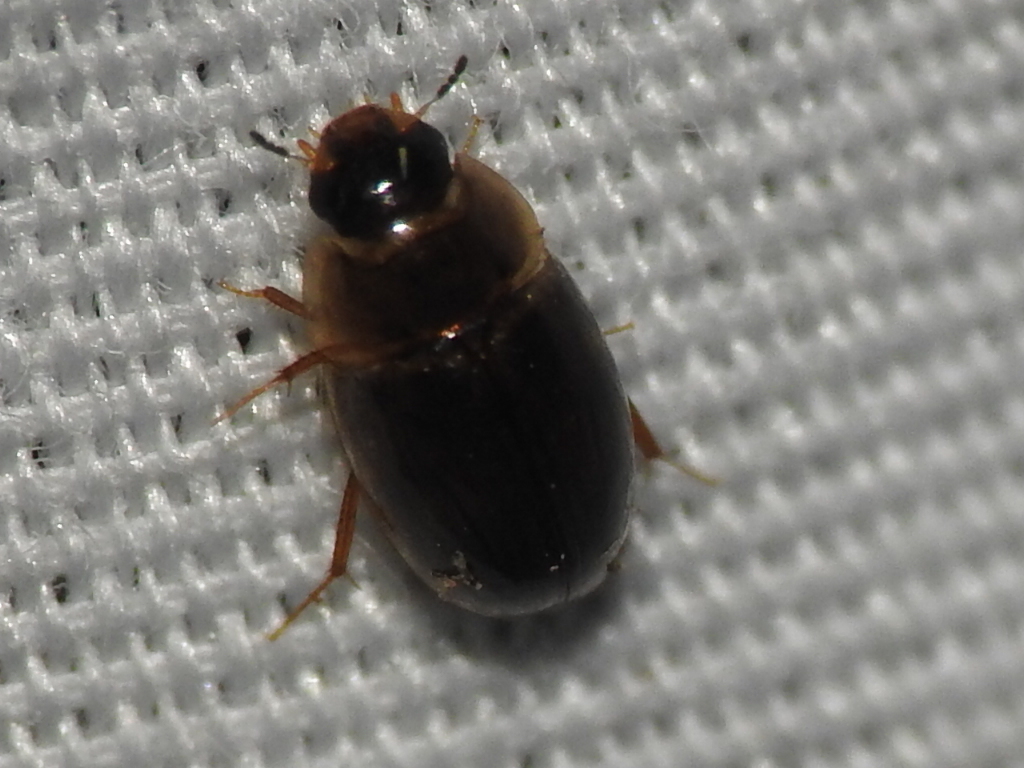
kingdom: Animalia
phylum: Arthropoda
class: Insecta
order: Coleoptera
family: Hydrophilidae
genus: Enochrus
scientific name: Enochrus
